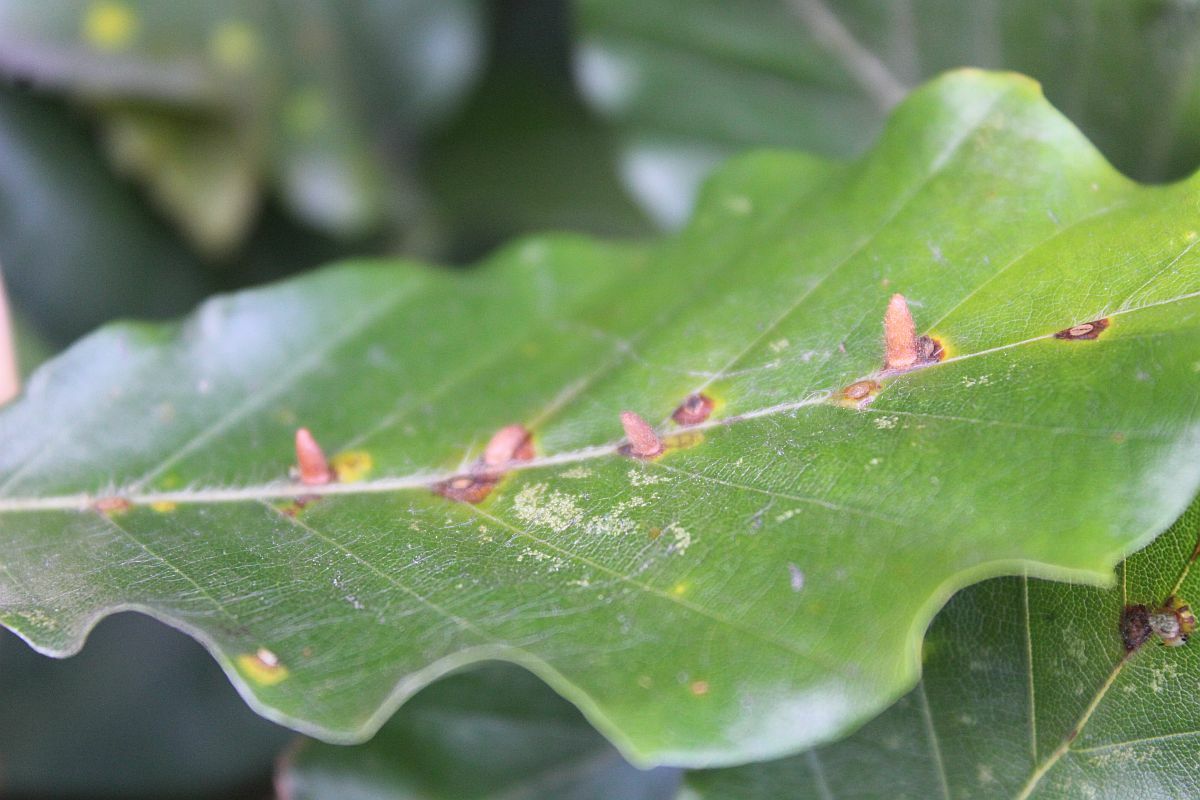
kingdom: Animalia
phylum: Arthropoda
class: Insecta
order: Diptera
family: Cecidomyiidae
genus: Hartigiola
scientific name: Hartigiola annulipes
